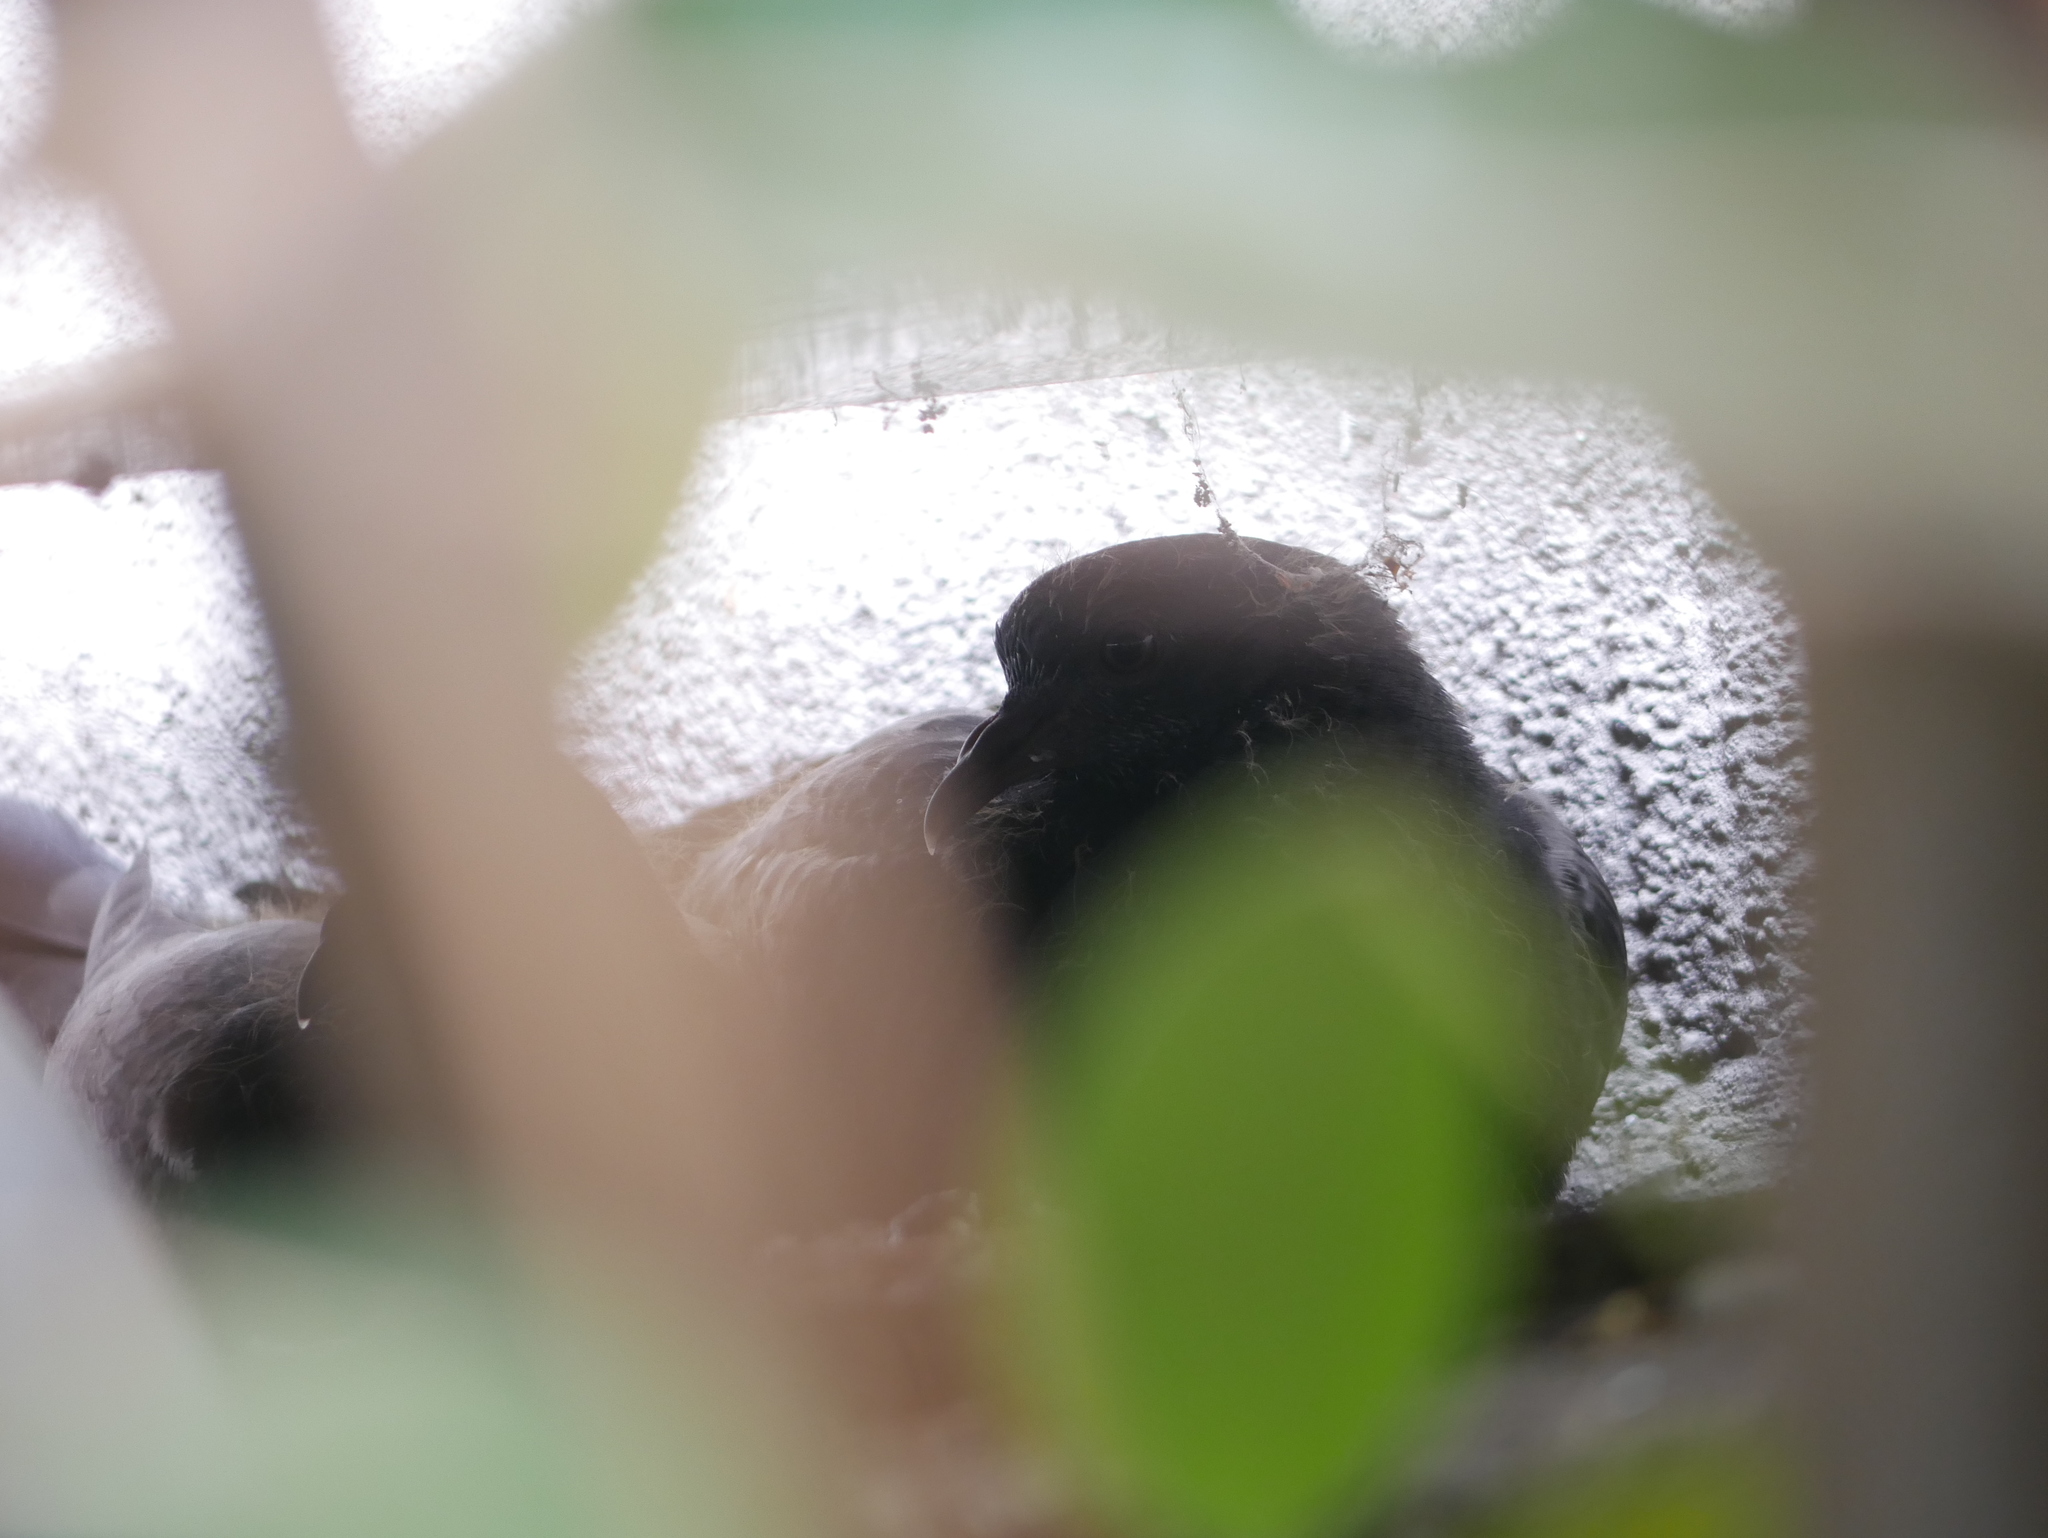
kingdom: Animalia
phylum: Chordata
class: Aves
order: Columbiformes
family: Columbidae
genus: Columba
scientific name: Columba livia
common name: Rock pigeon
